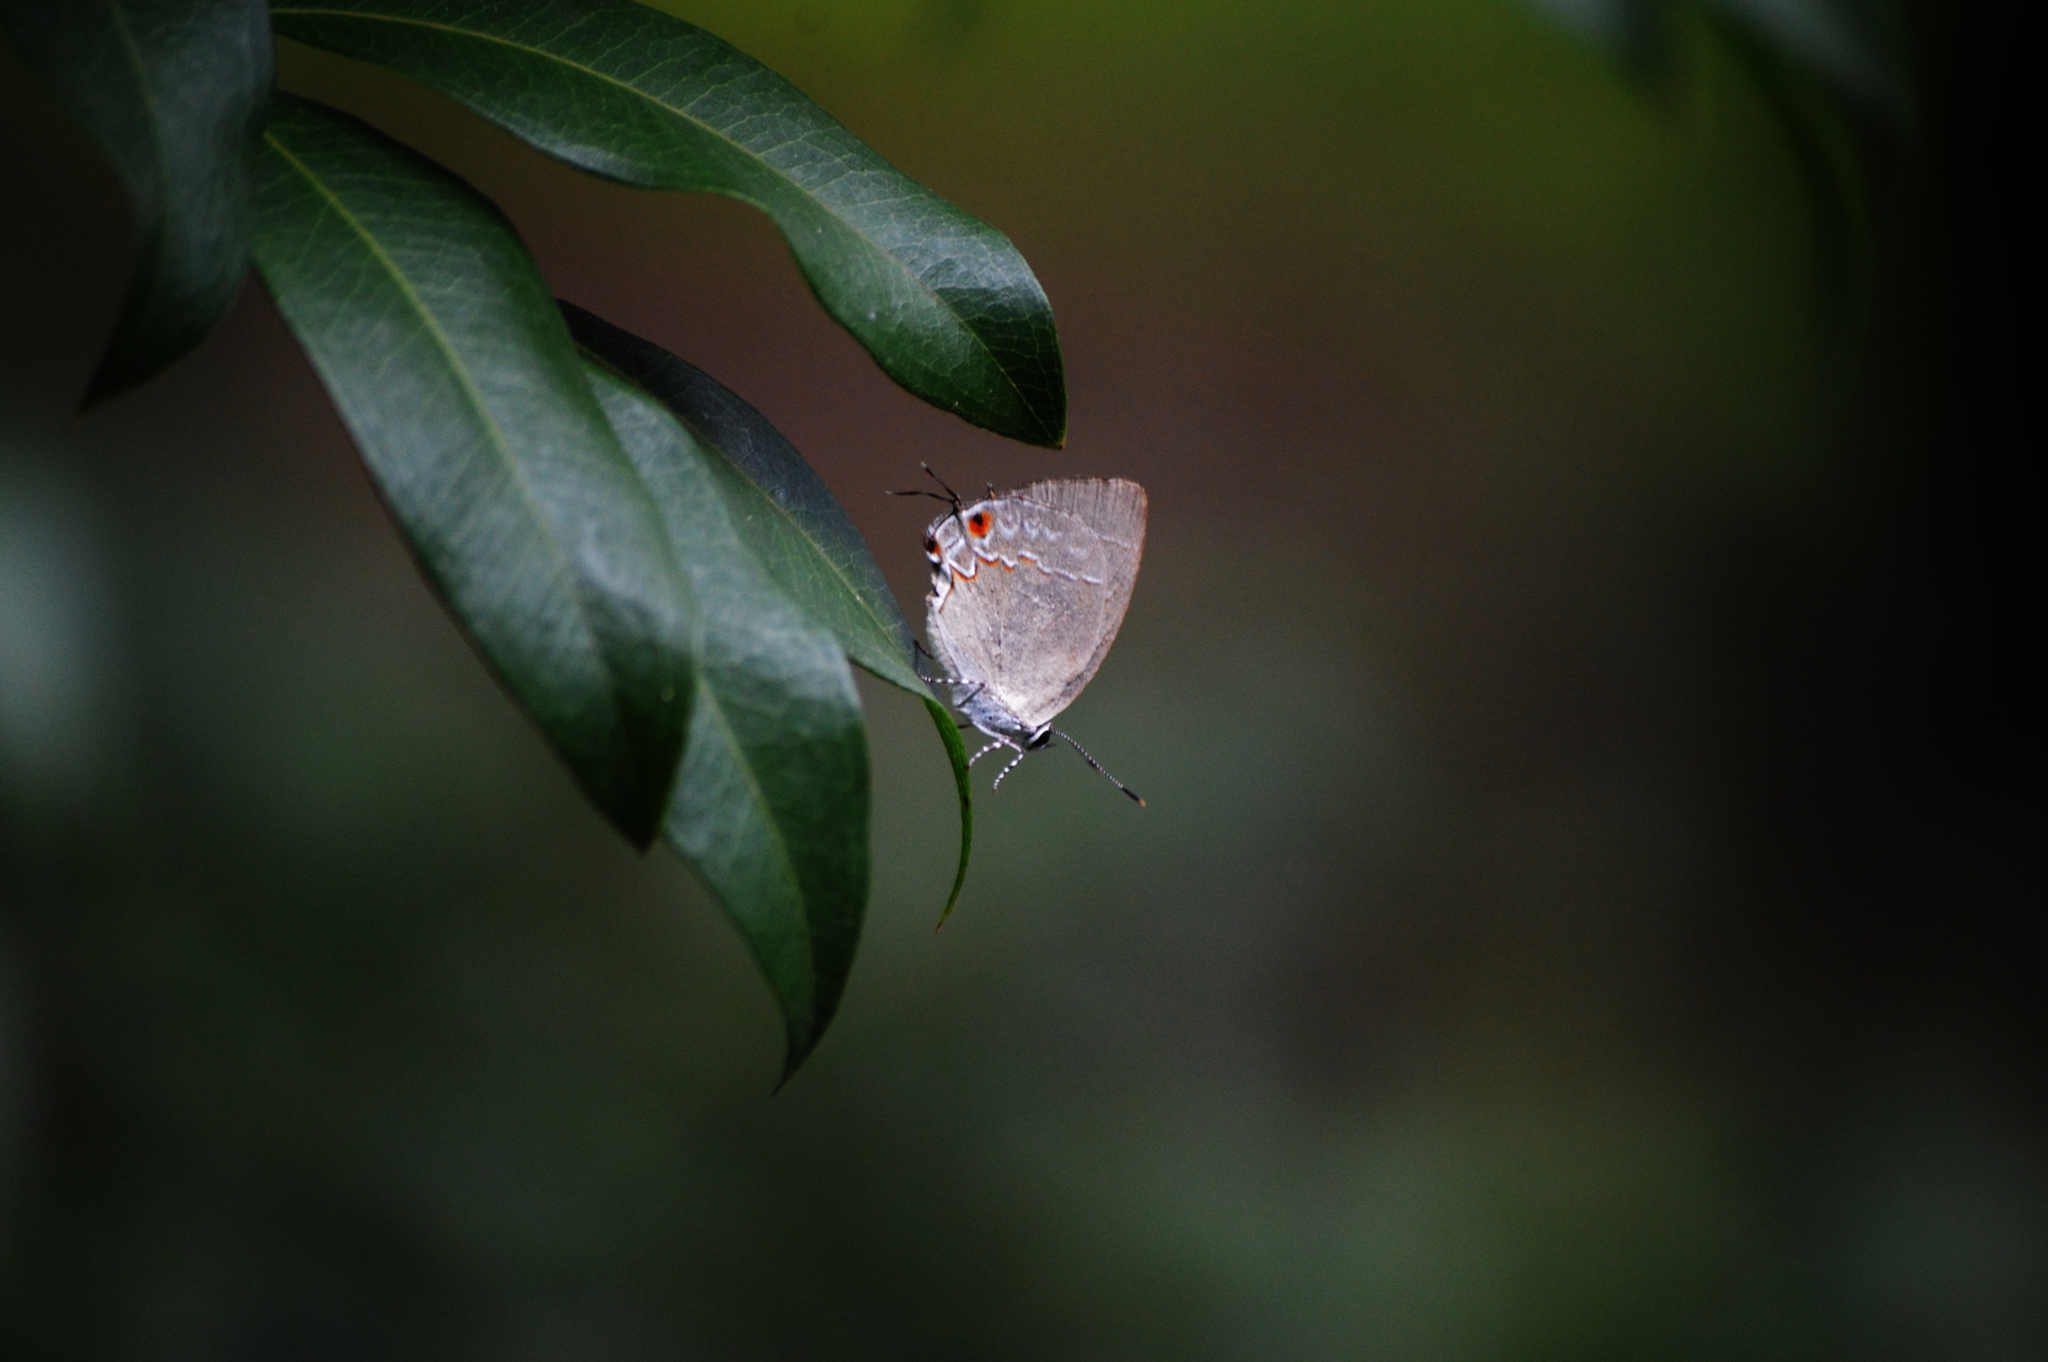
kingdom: Animalia
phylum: Arthropoda
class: Insecta
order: Lepidoptera
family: Lycaenidae
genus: Siderus
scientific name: Siderus
